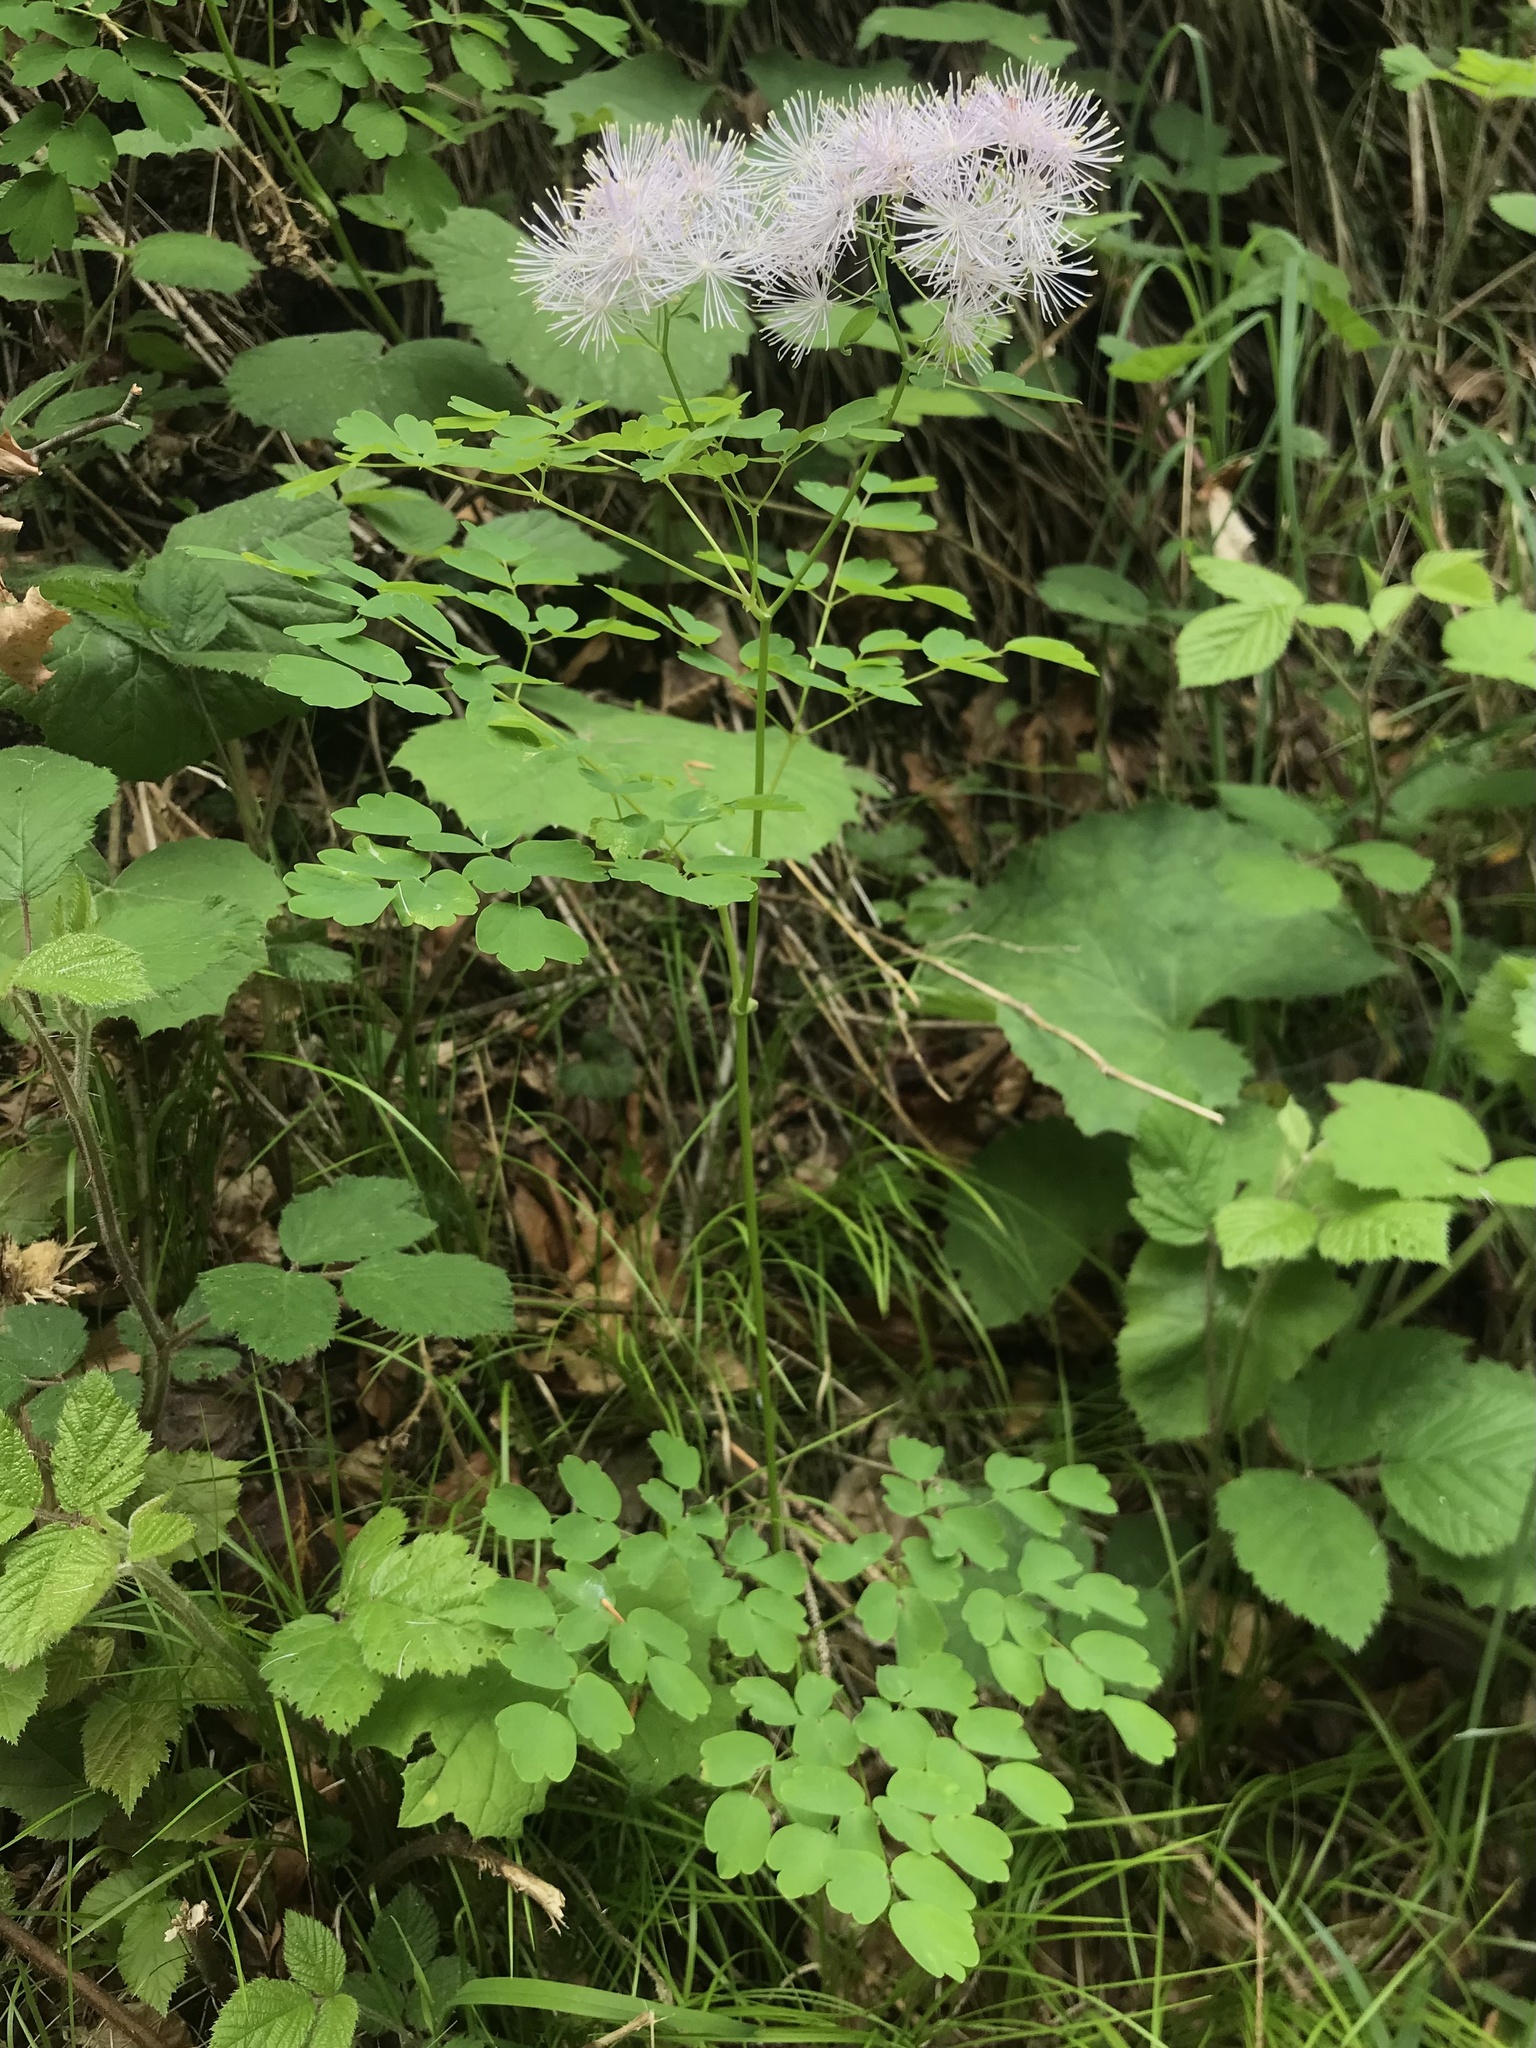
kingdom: Plantae
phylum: Tracheophyta
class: Magnoliopsida
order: Ranunculales
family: Ranunculaceae
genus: Thalictrum
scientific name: Thalictrum aquilegiifolium
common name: French meadow-rue
